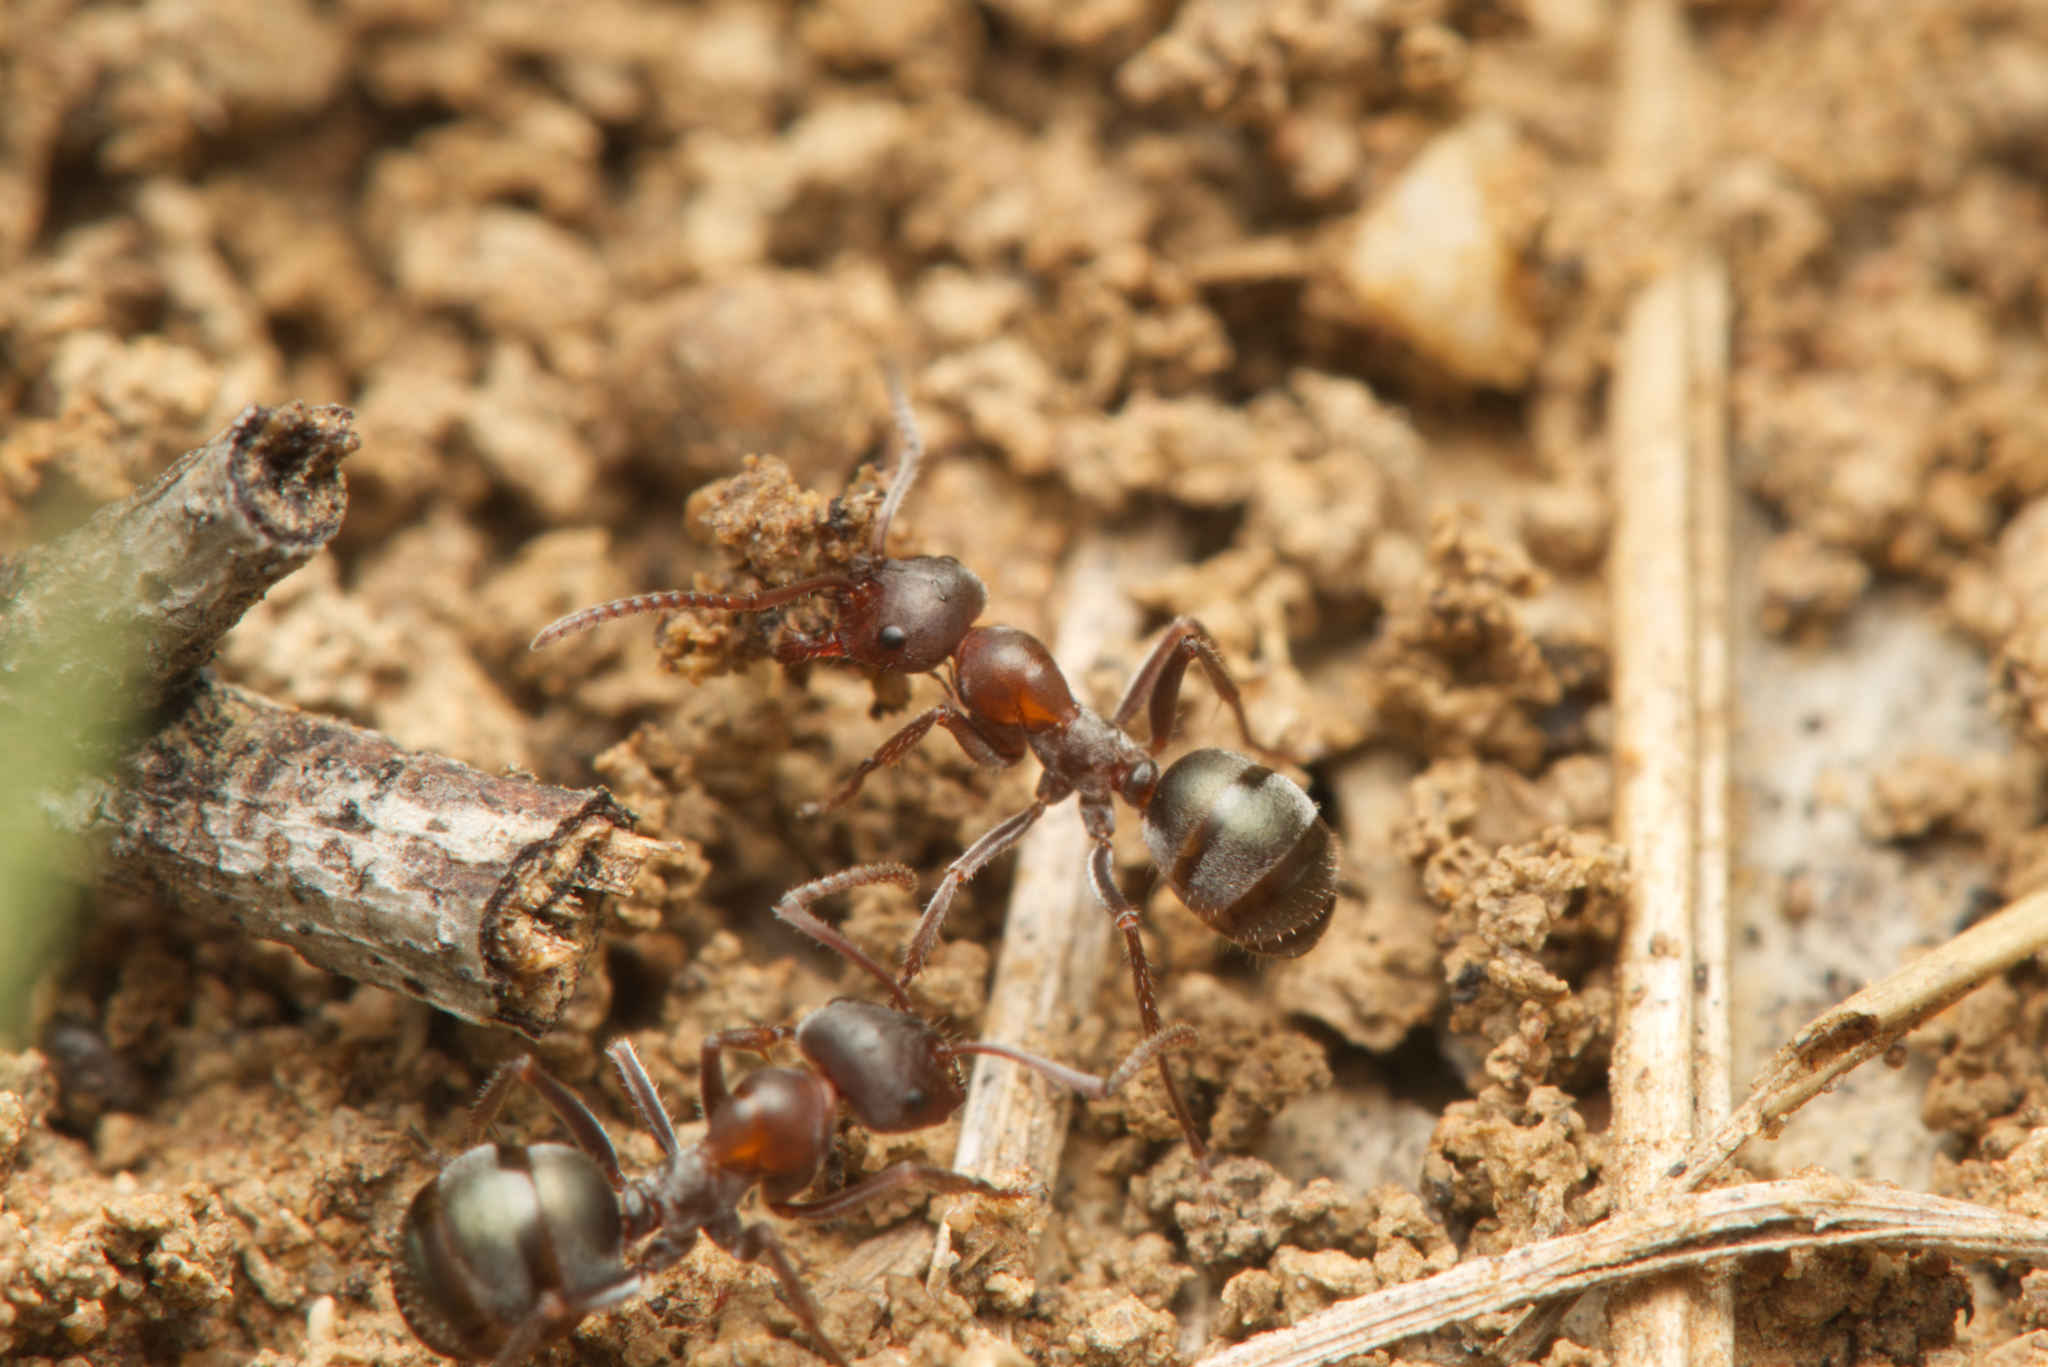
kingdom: Animalia
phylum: Arthropoda
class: Insecta
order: Hymenoptera
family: Formicidae
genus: Melophorus
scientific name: Melophorus gibbosus
